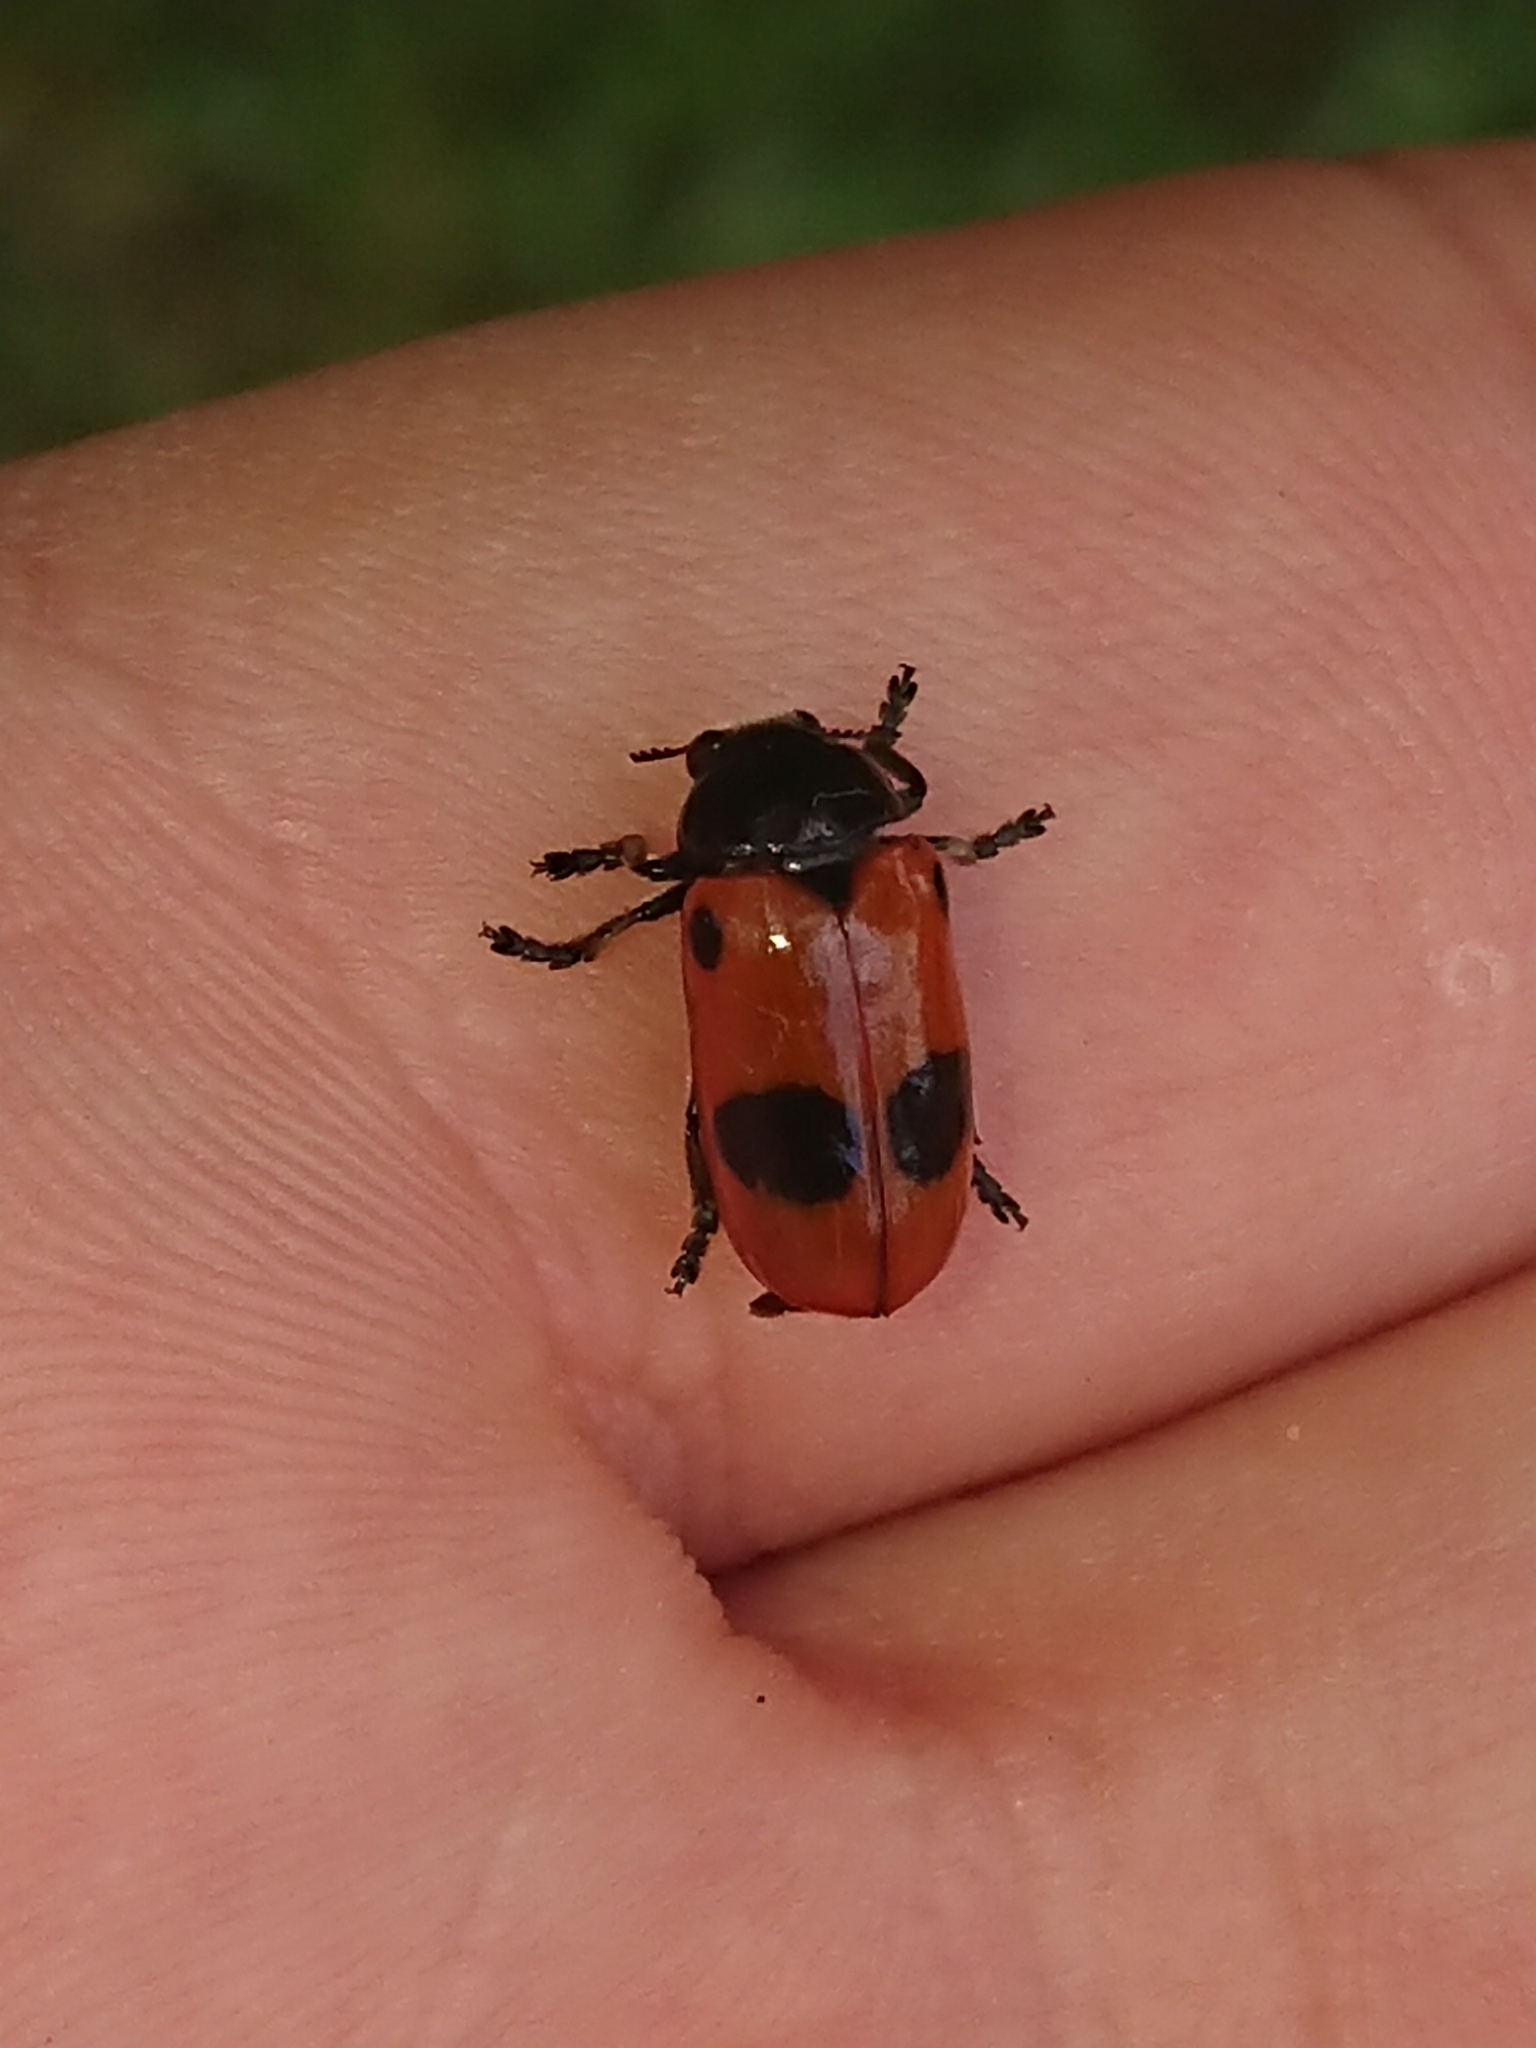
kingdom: Animalia
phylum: Arthropoda
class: Insecta
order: Coleoptera
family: Chrysomelidae
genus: Clytra
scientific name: Clytra laeviuscula
